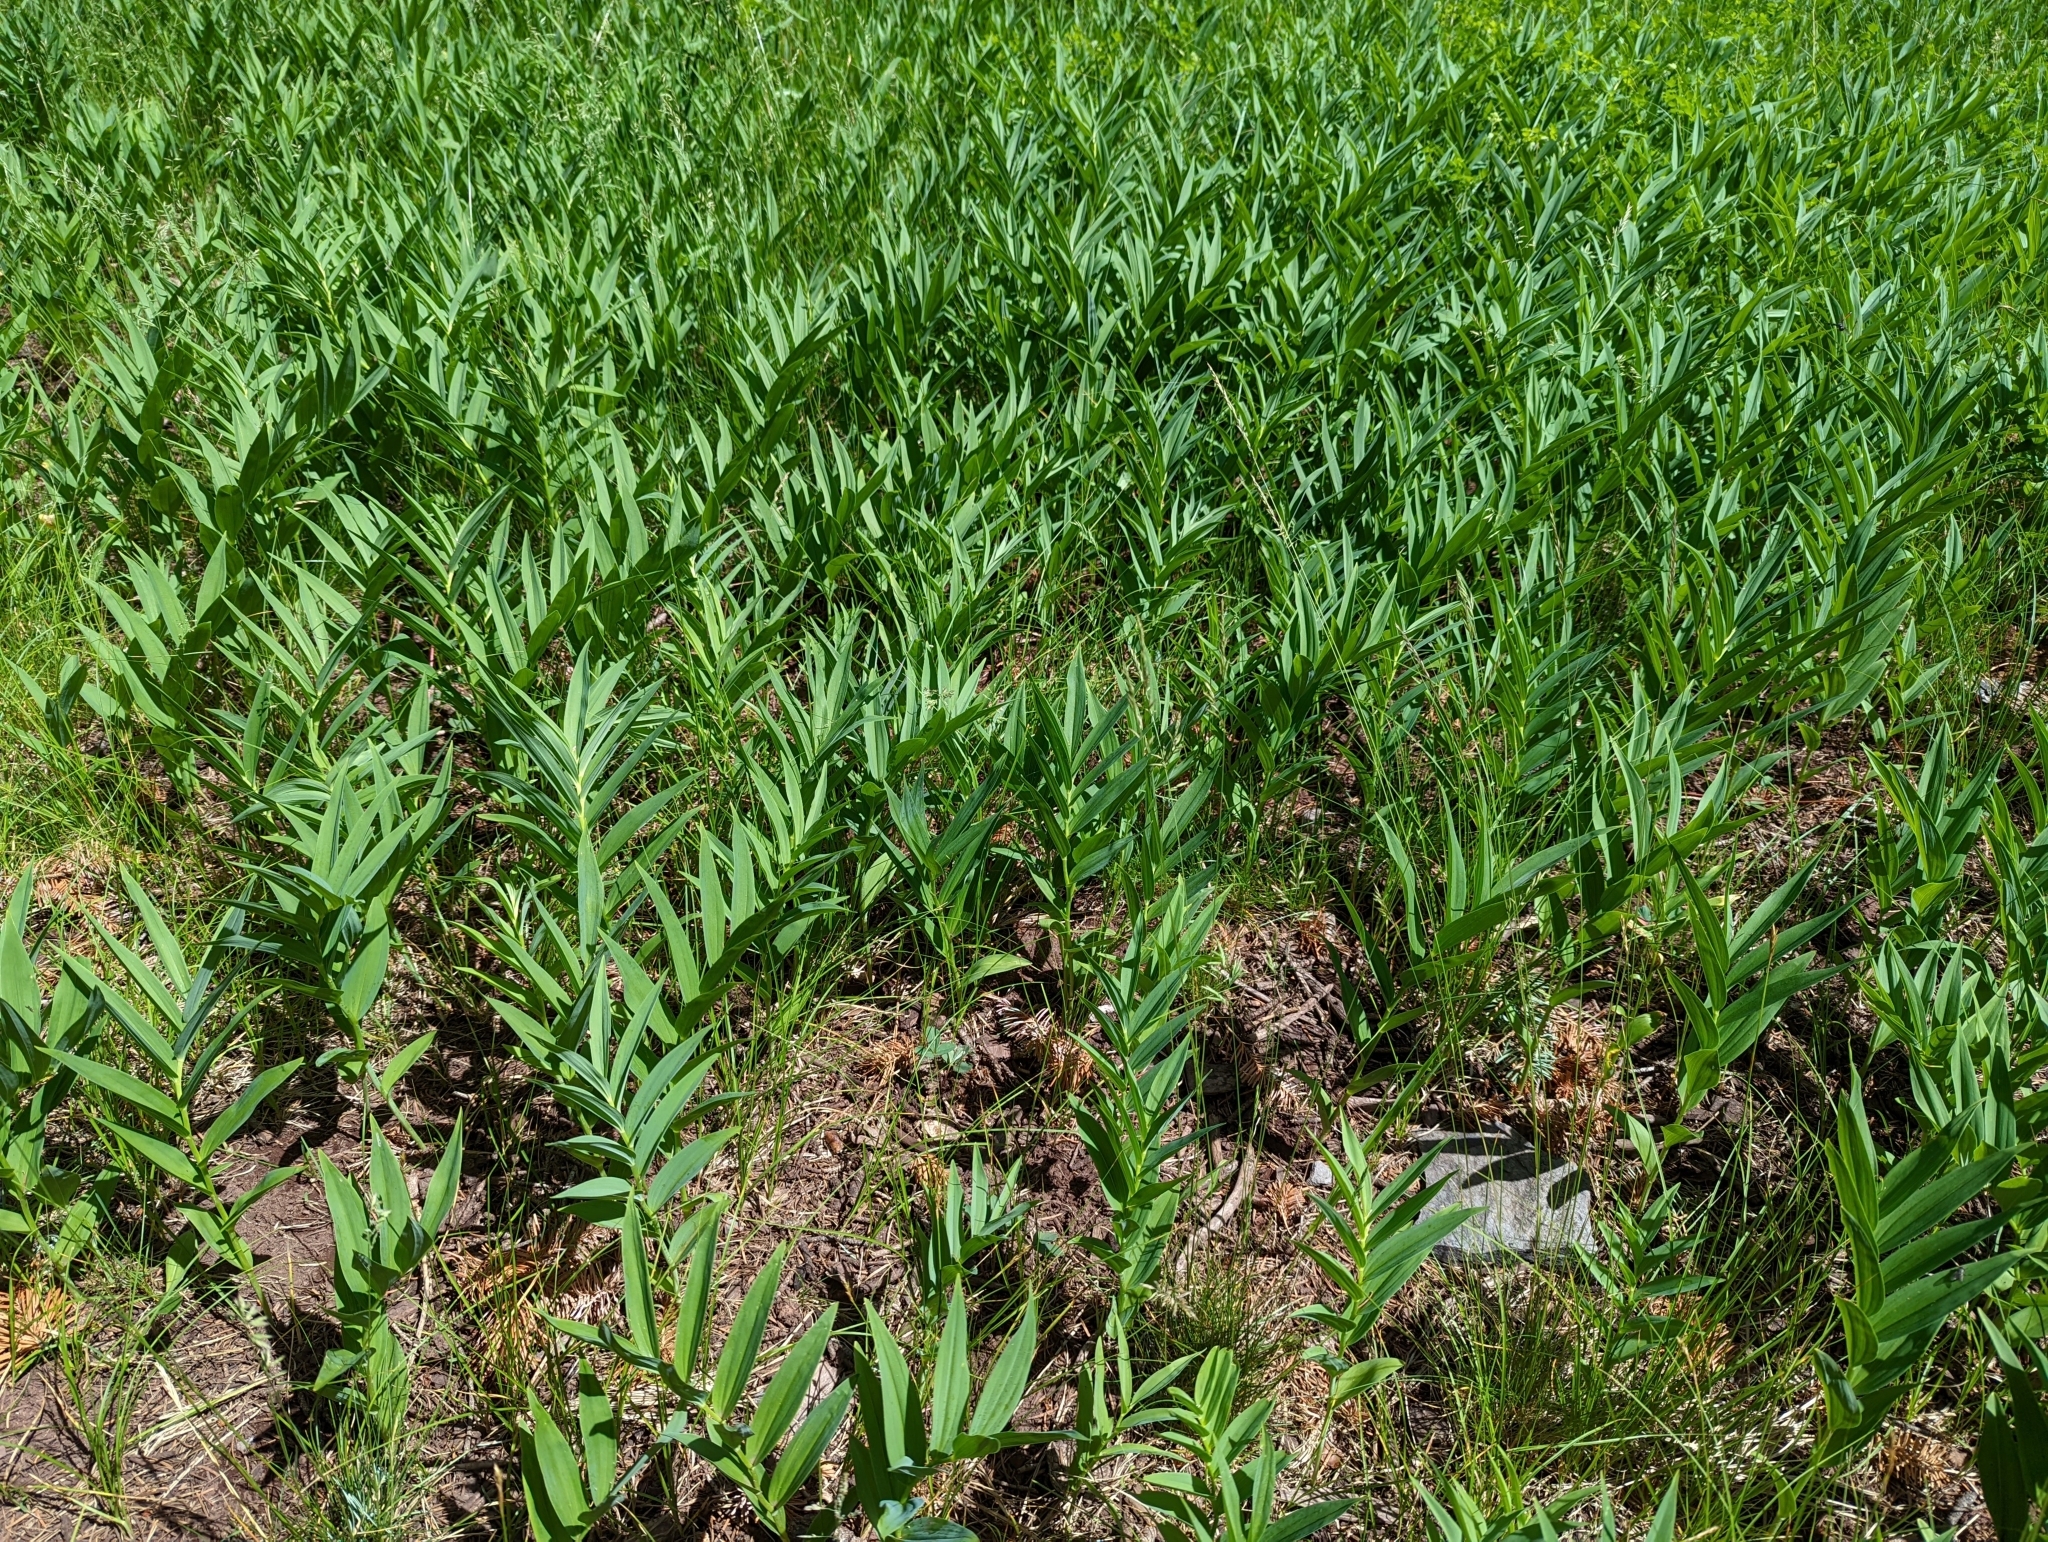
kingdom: Plantae
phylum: Tracheophyta
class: Liliopsida
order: Asparagales
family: Asparagaceae
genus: Maianthemum
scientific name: Maianthemum stellatum
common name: Little false solomon's seal
